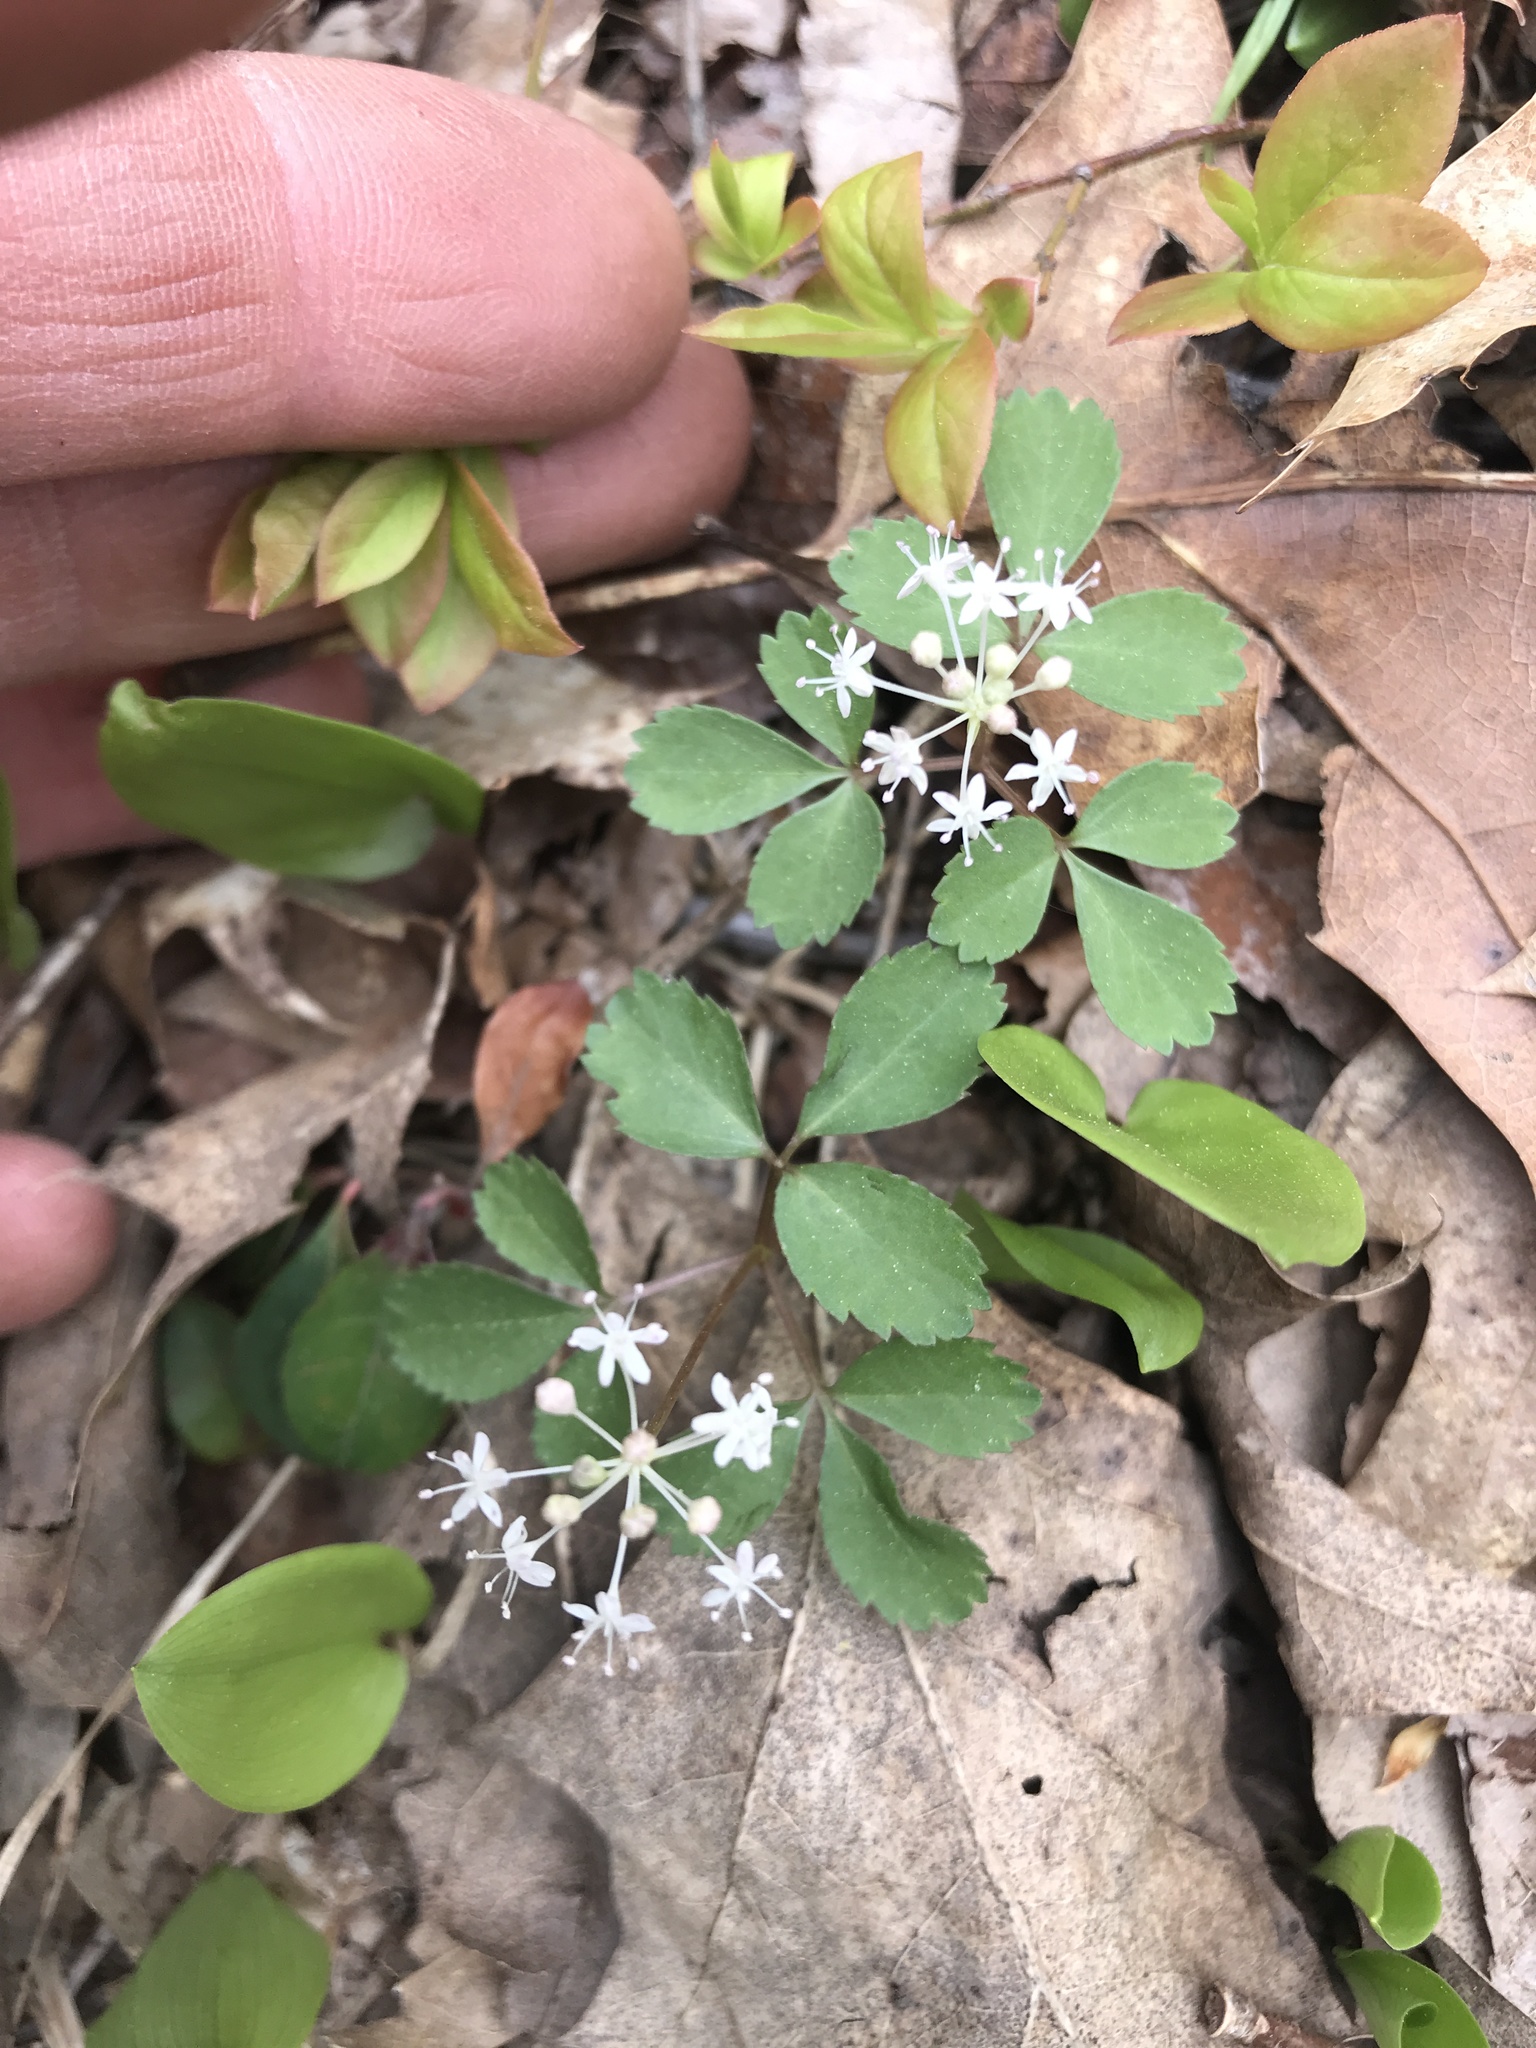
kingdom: Plantae
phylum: Tracheophyta
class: Magnoliopsida
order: Apiales
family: Araliaceae
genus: Panax
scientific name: Panax trifolius
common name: Dwarf ginseng
